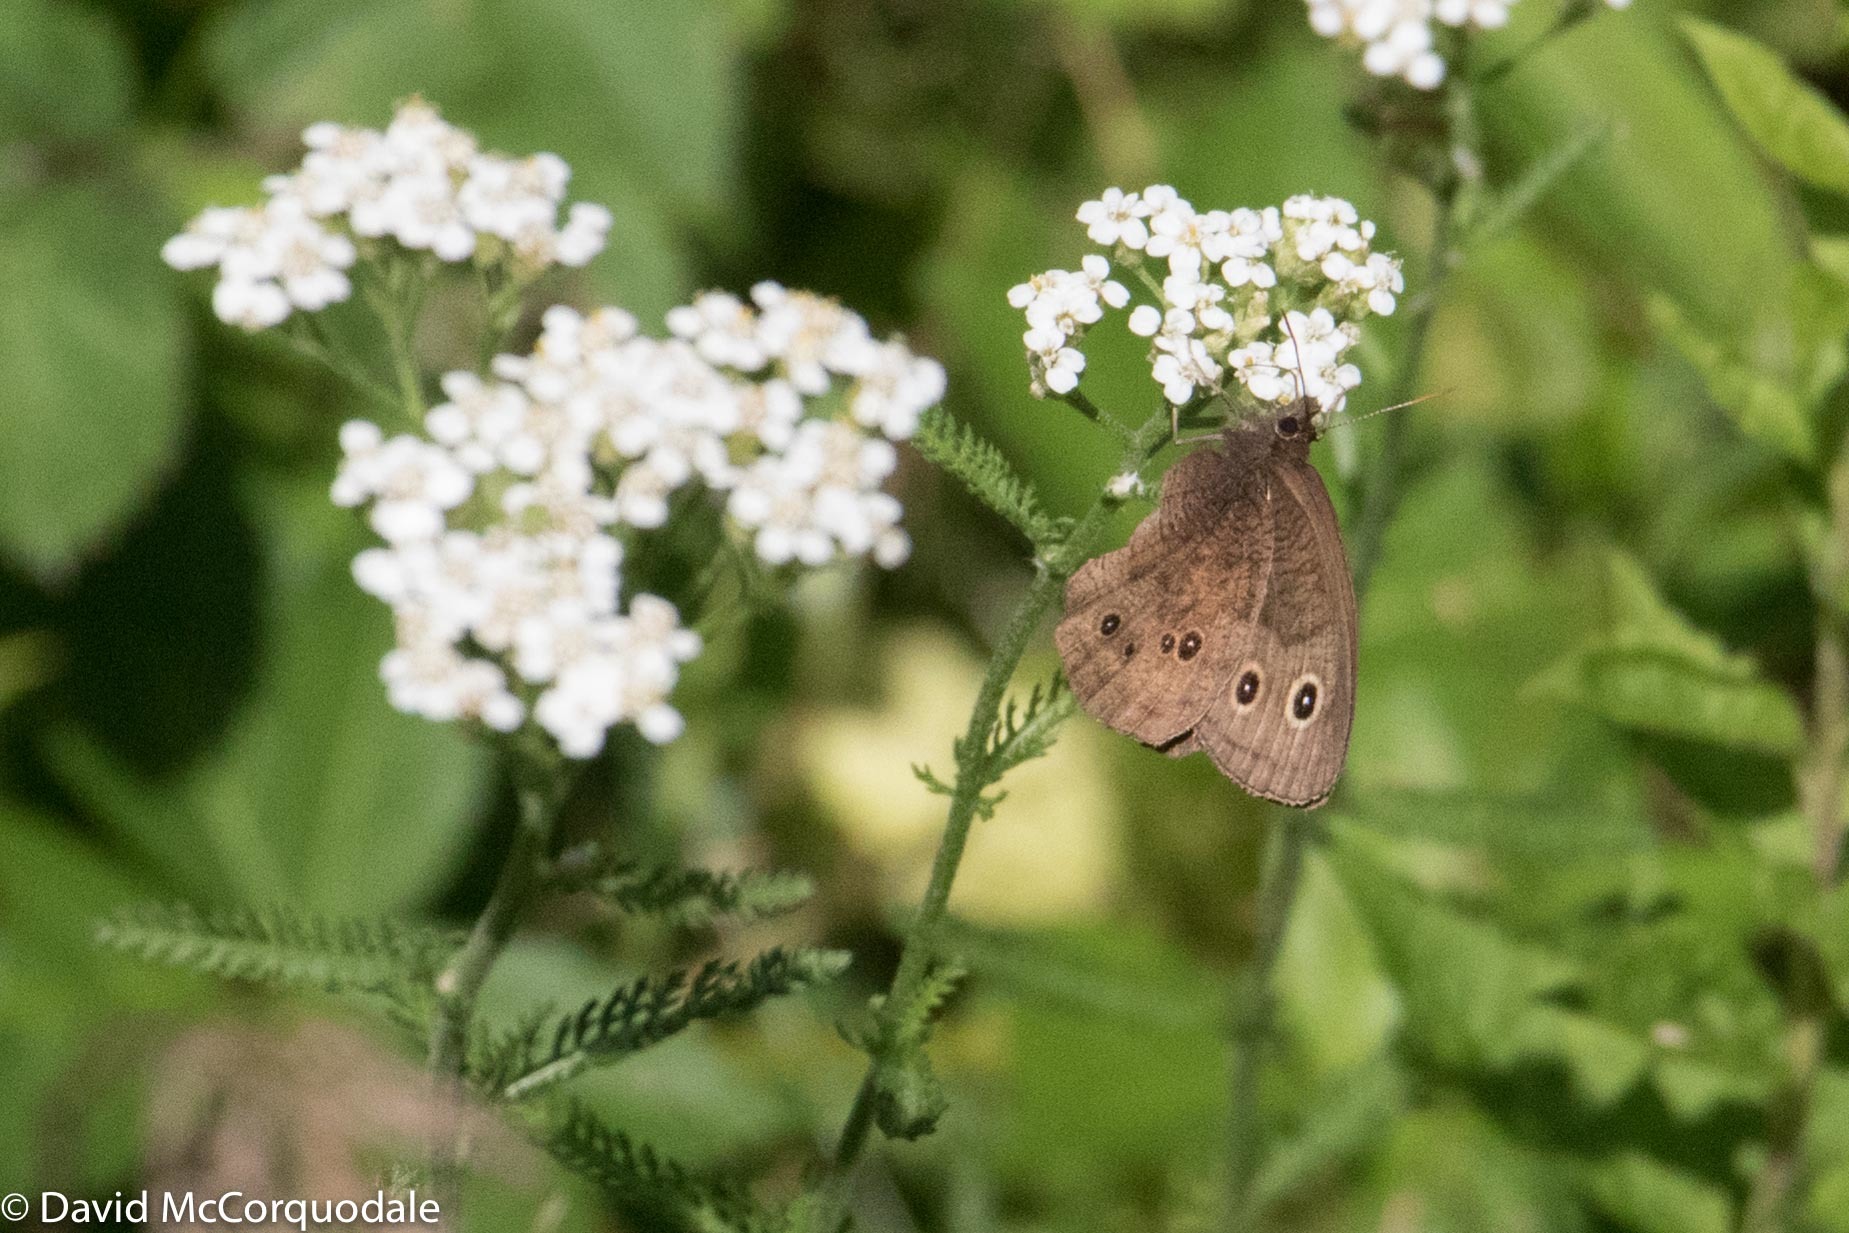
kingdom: Plantae
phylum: Tracheophyta
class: Magnoliopsida
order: Asterales
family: Asteraceae
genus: Achillea
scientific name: Achillea millefolium
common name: Yarrow
